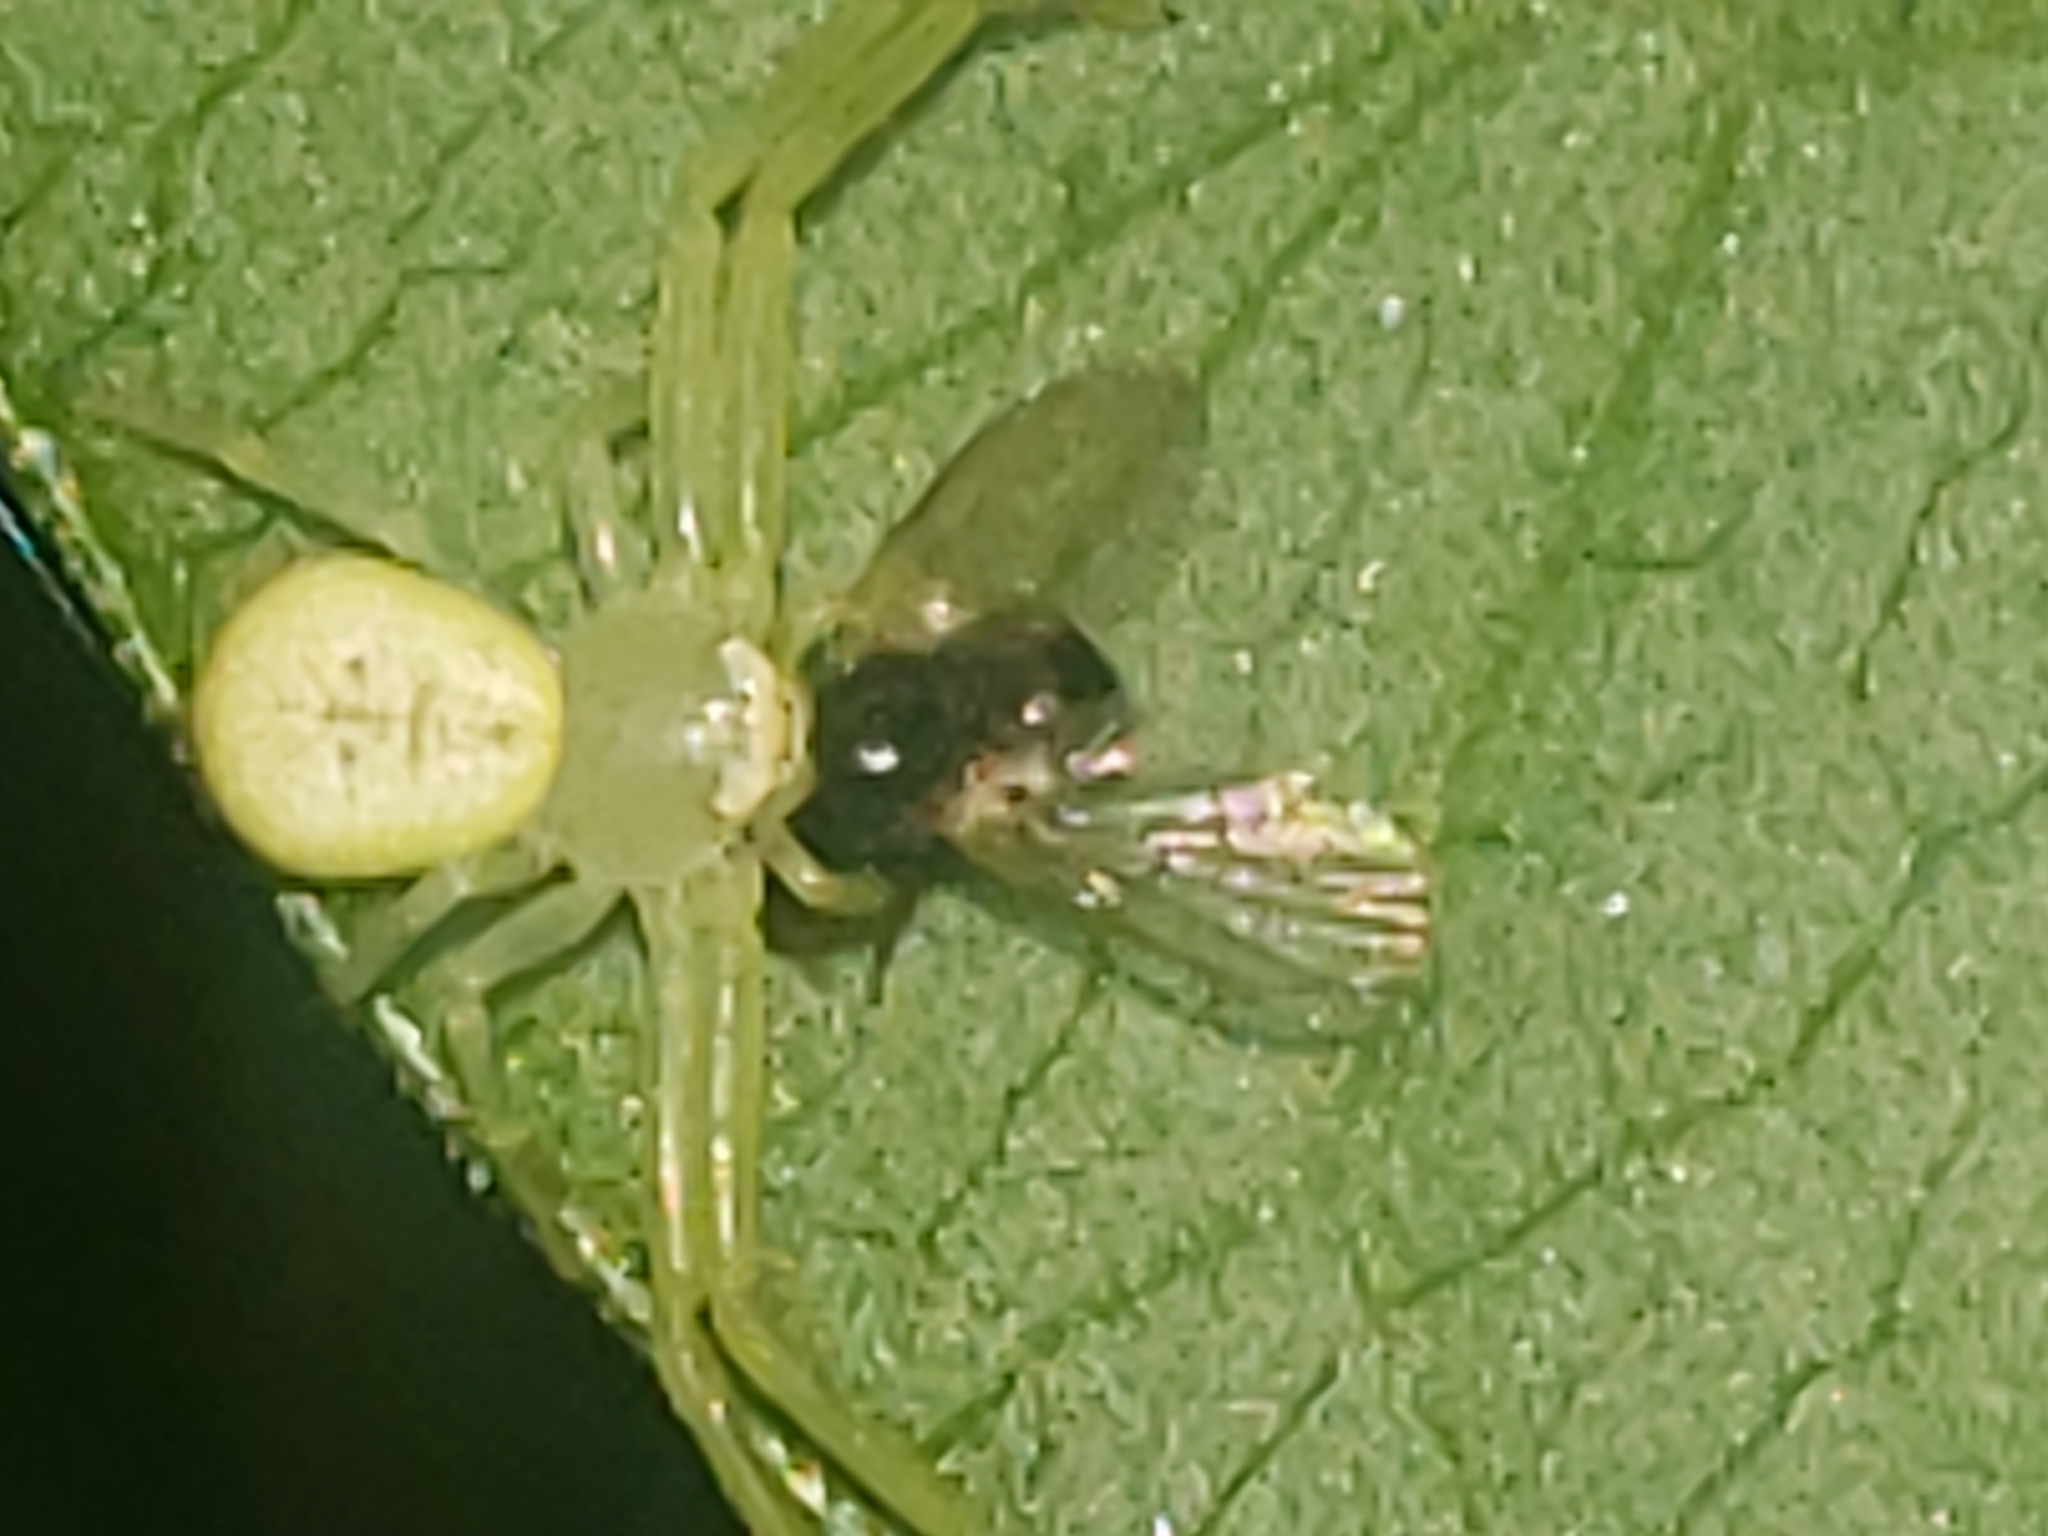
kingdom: Animalia
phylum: Arthropoda
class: Arachnida
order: Araneae
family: Thomisidae
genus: Misumessus
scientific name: Misumessus oblongus
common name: American green crab spider
